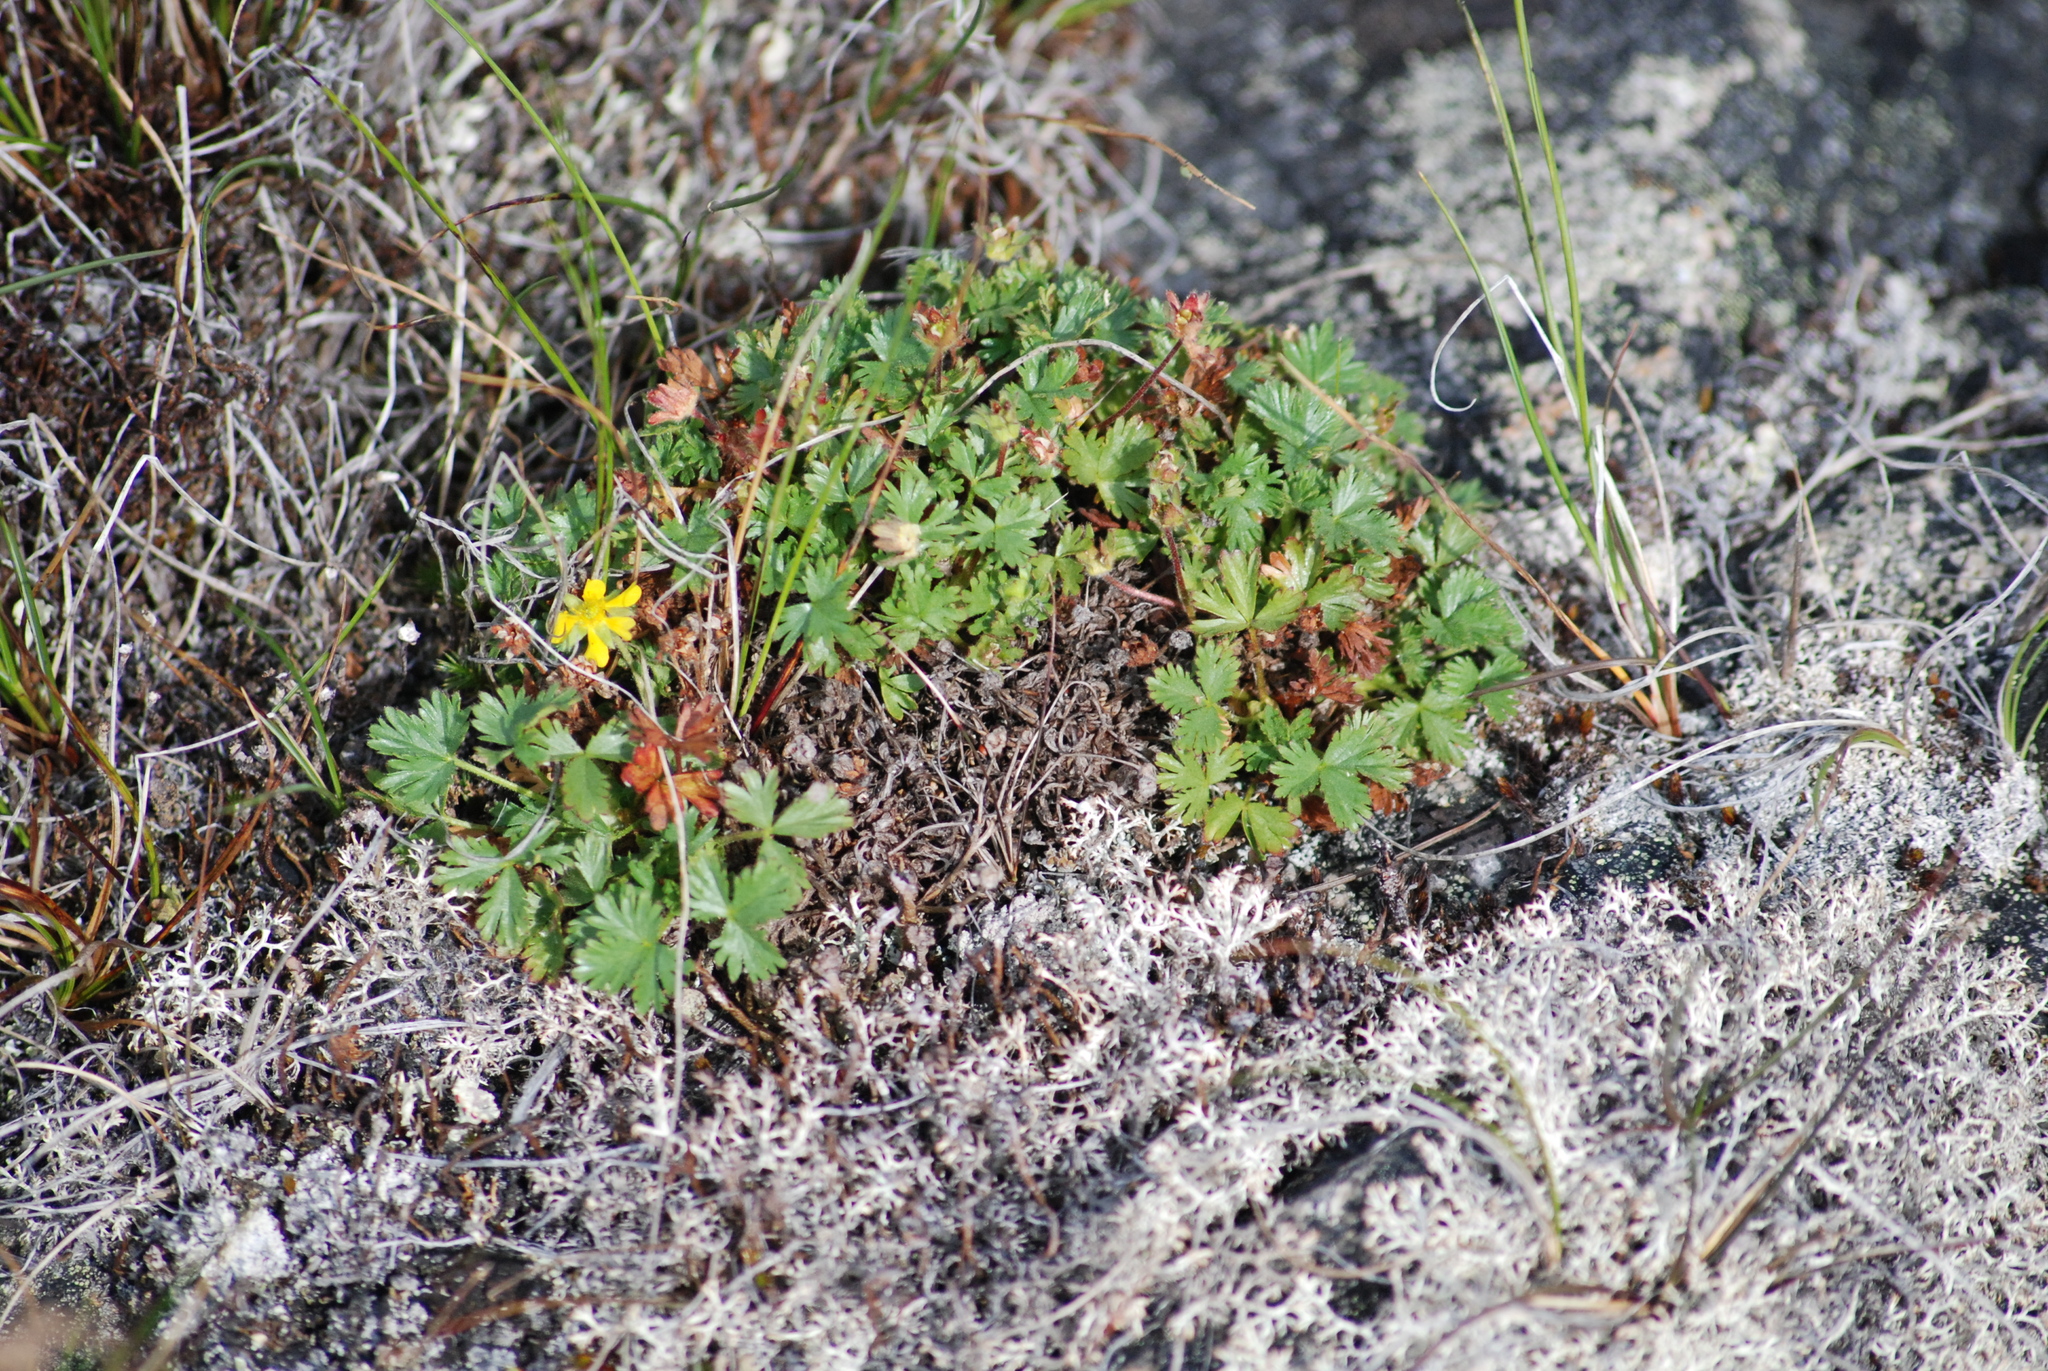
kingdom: Plantae
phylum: Tracheophyta
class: Magnoliopsida
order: Rosales
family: Rosaceae
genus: Potentilla
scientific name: Potentilla elegans
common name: Elegant cinquefoil
